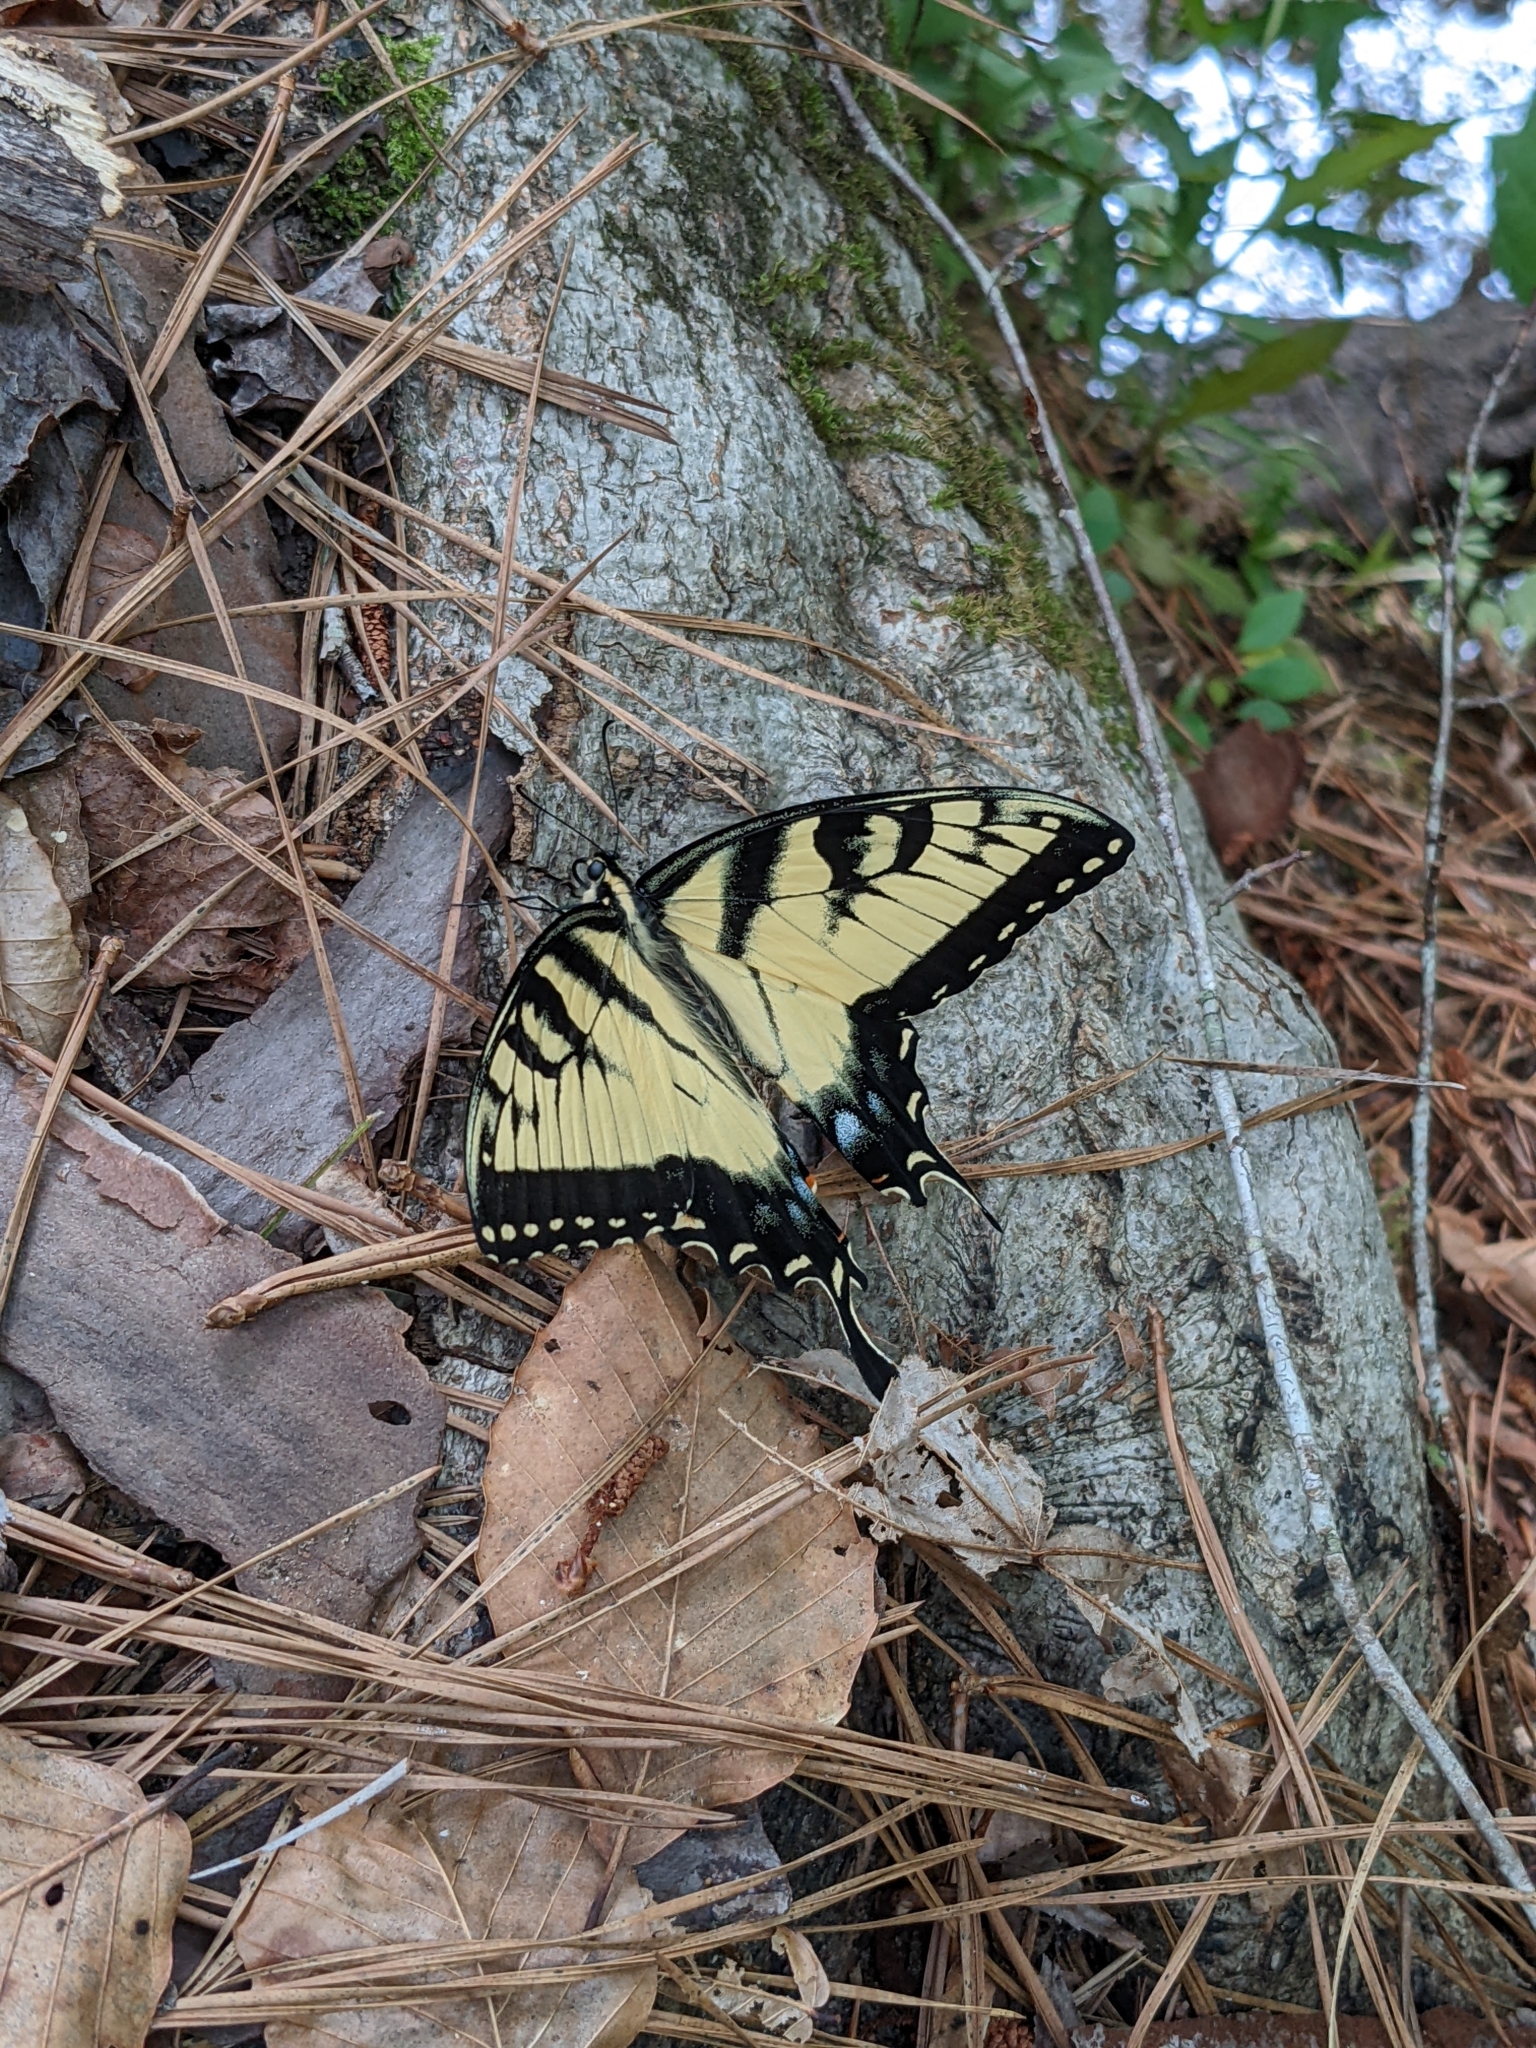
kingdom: Animalia
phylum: Arthropoda
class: Insecta
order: Lepidoptera
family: Papilionidae
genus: Papilio
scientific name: Papilio glaucus
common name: Tiger swallowtail
